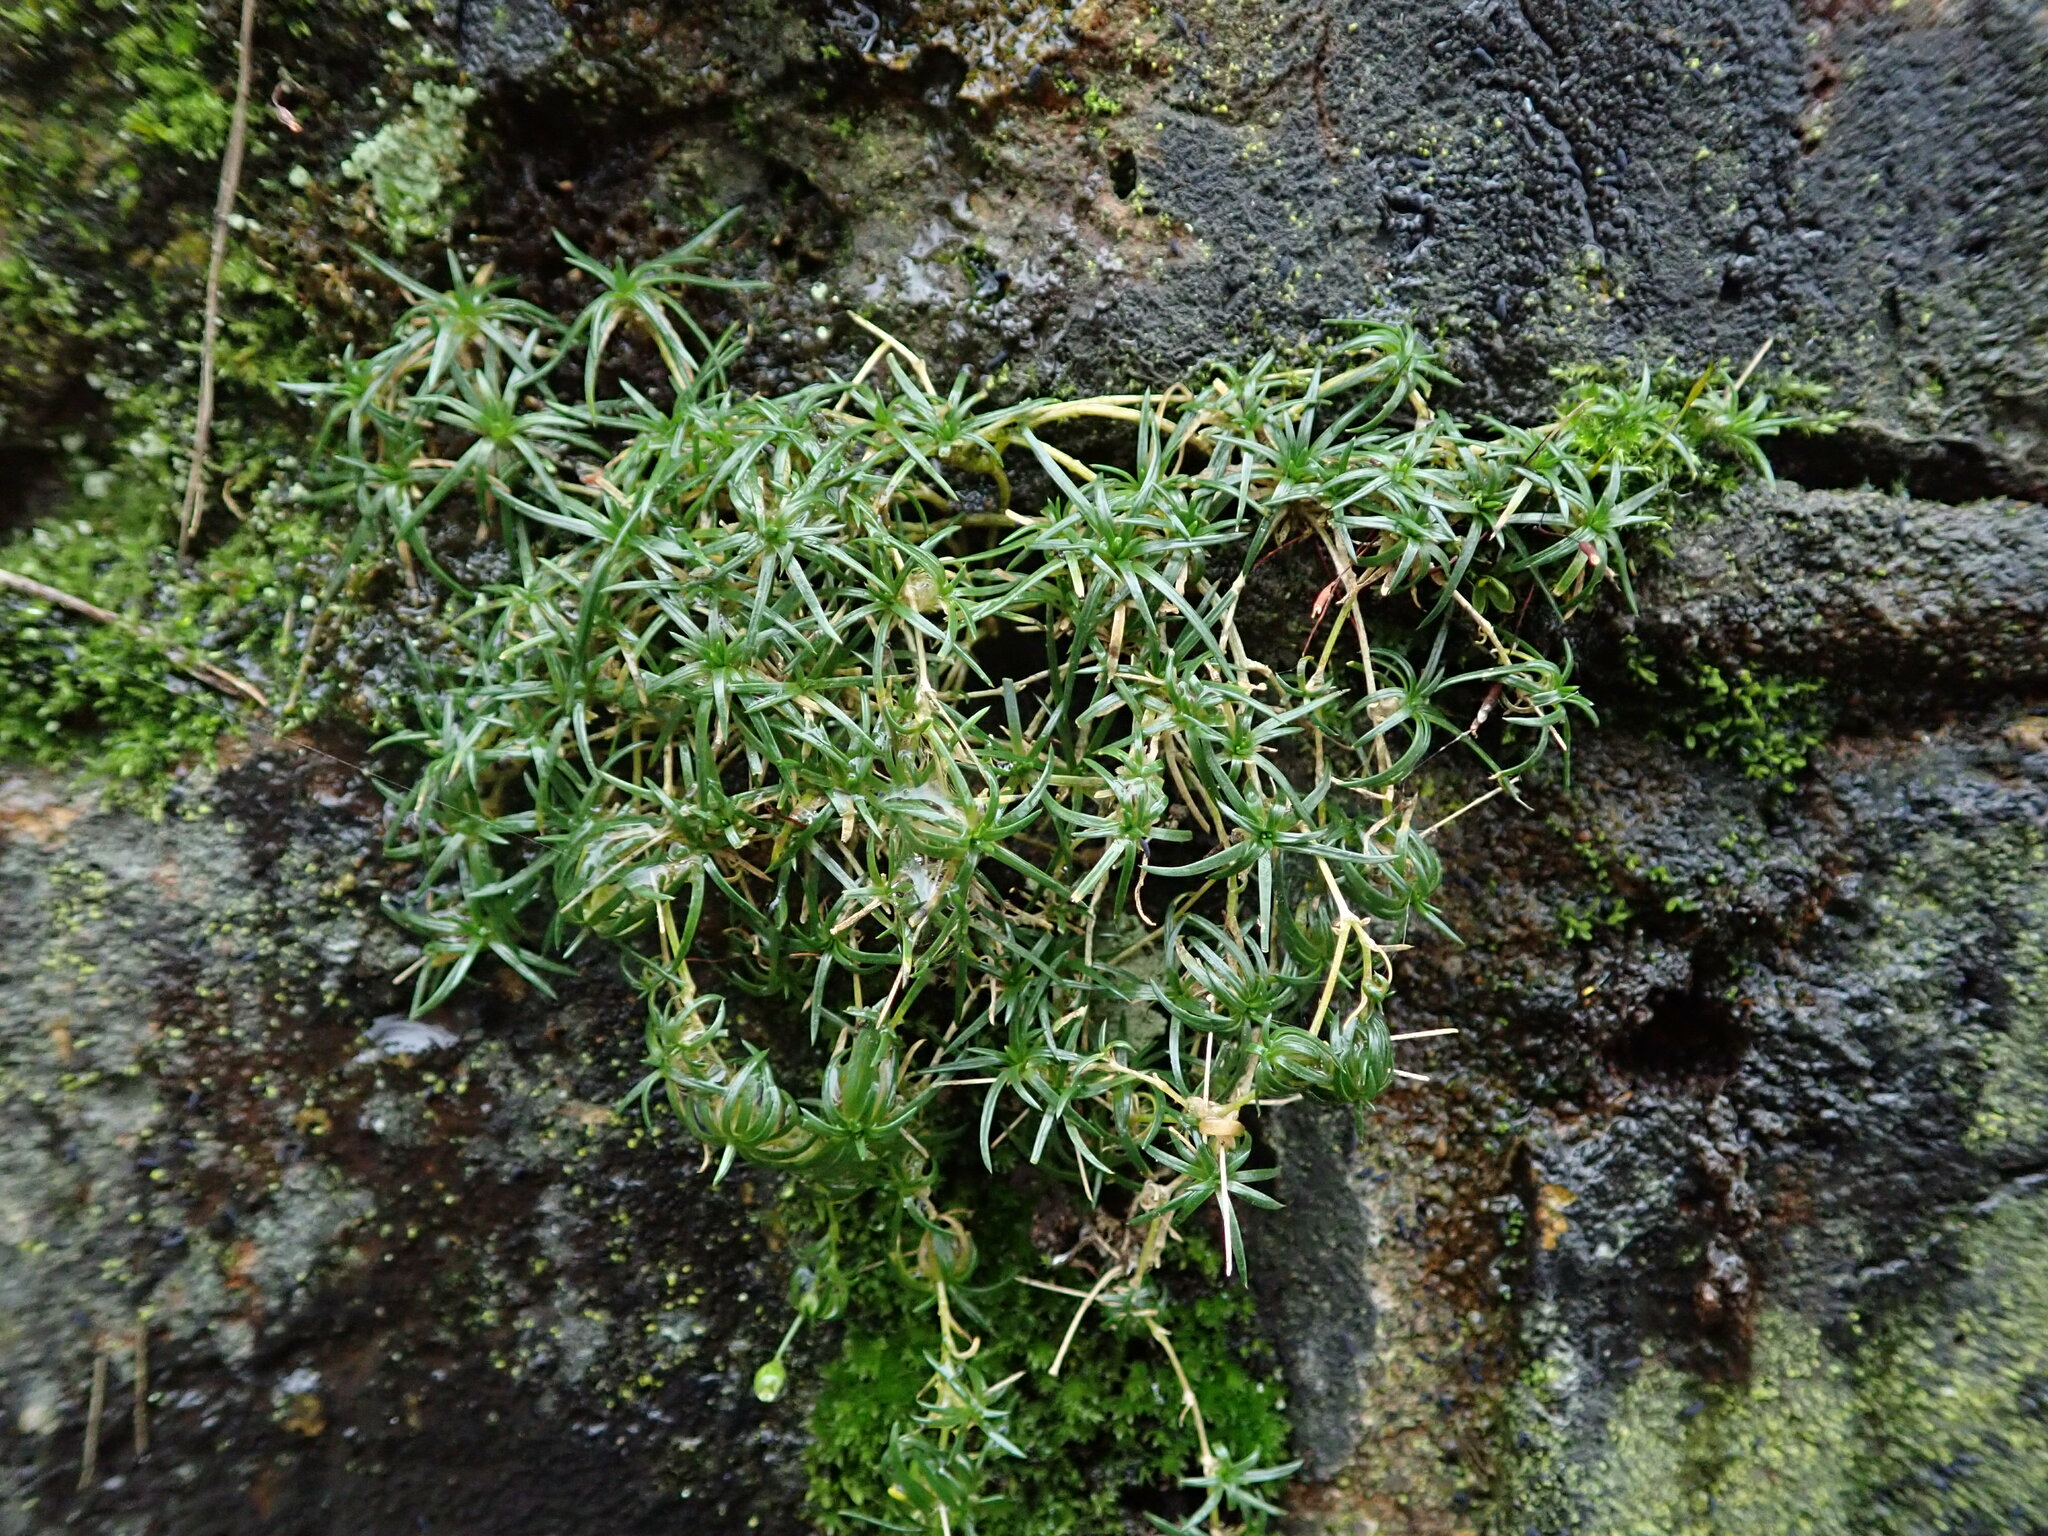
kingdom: Plantae
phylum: Tracheophyta
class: Magnoliopsida
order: Caryophyllales
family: Caryophyllaceae
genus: Sagina
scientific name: Sagina procumbens
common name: Procumbent pearlwort
